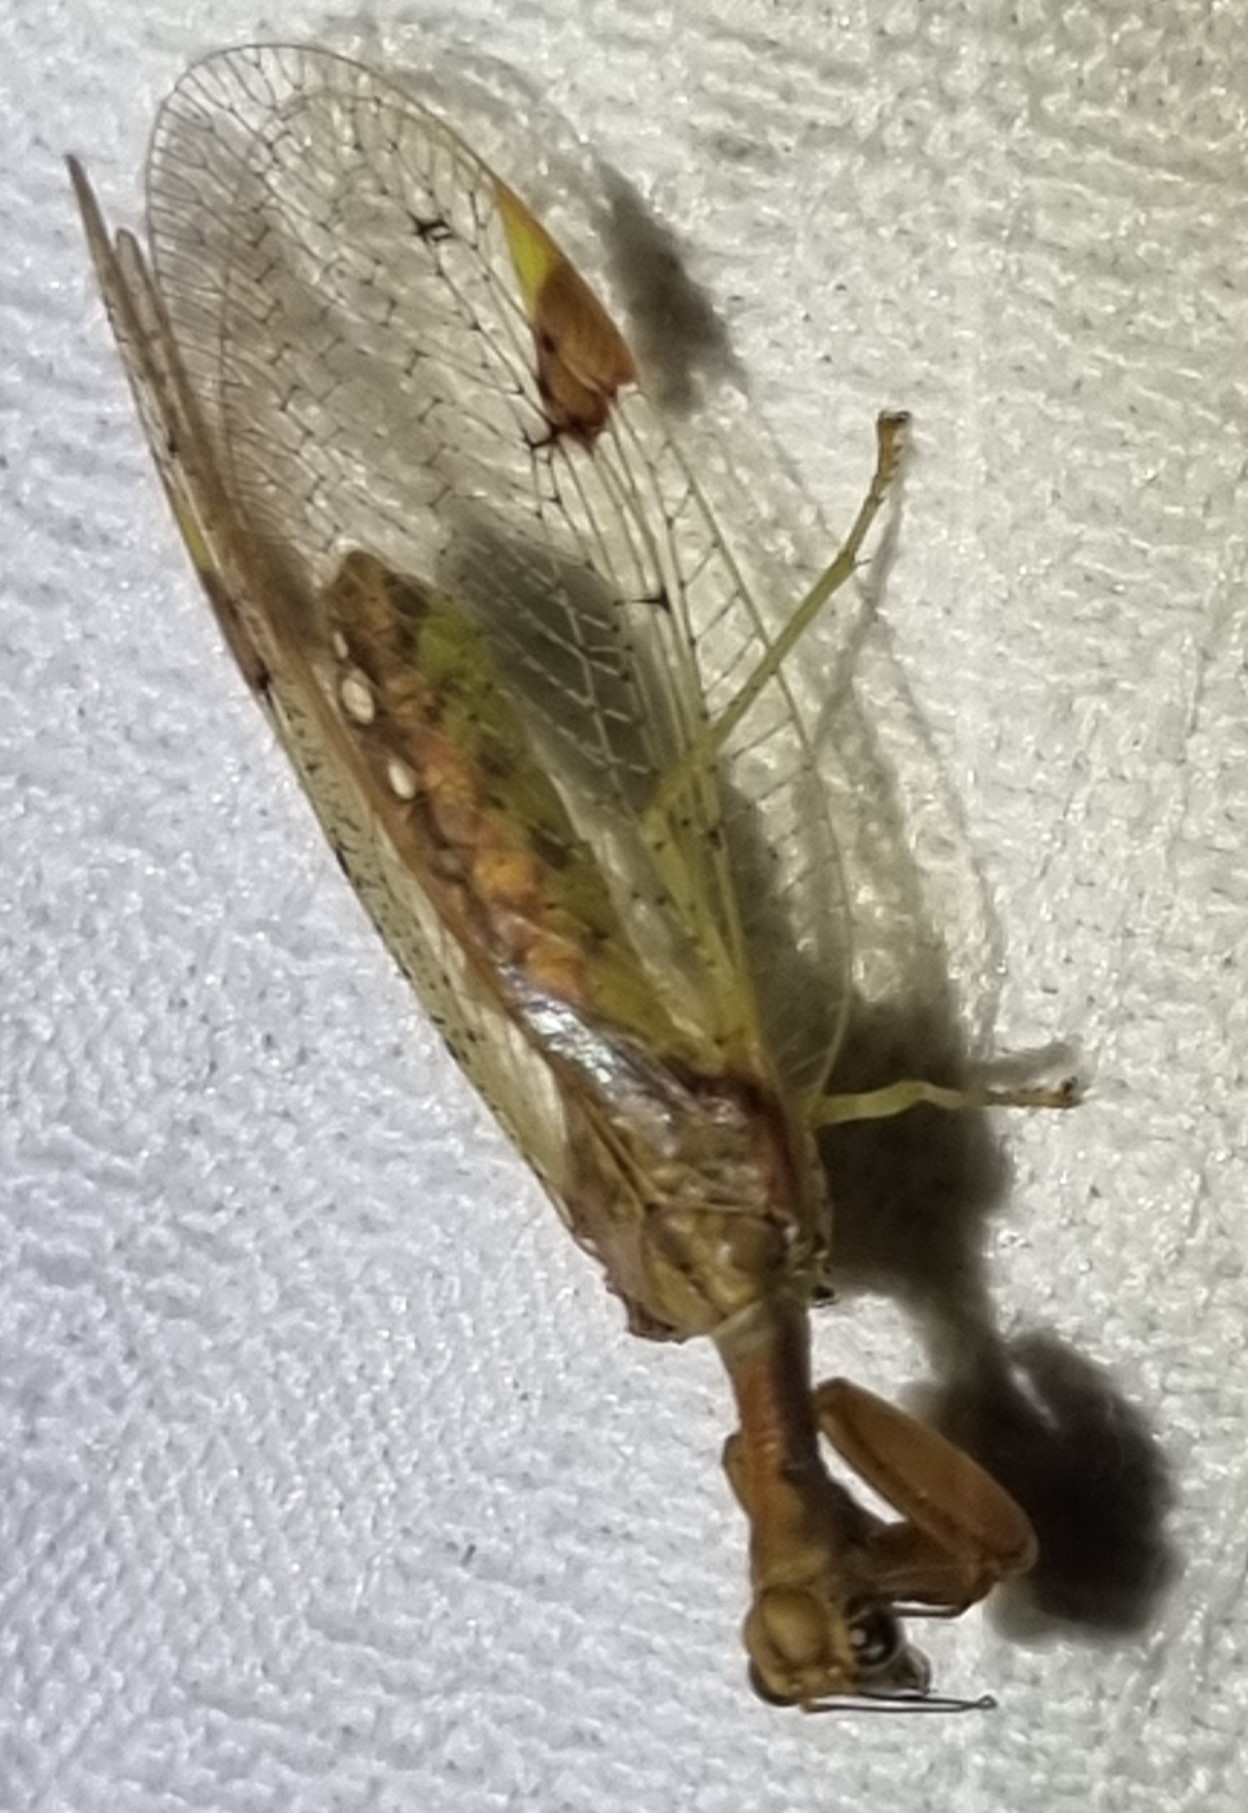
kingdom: Animalia
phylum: Arthropoda
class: Insecta
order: Neuroptera
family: Mantispidae
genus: Ditaxis
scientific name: Ditaxis biseriata
